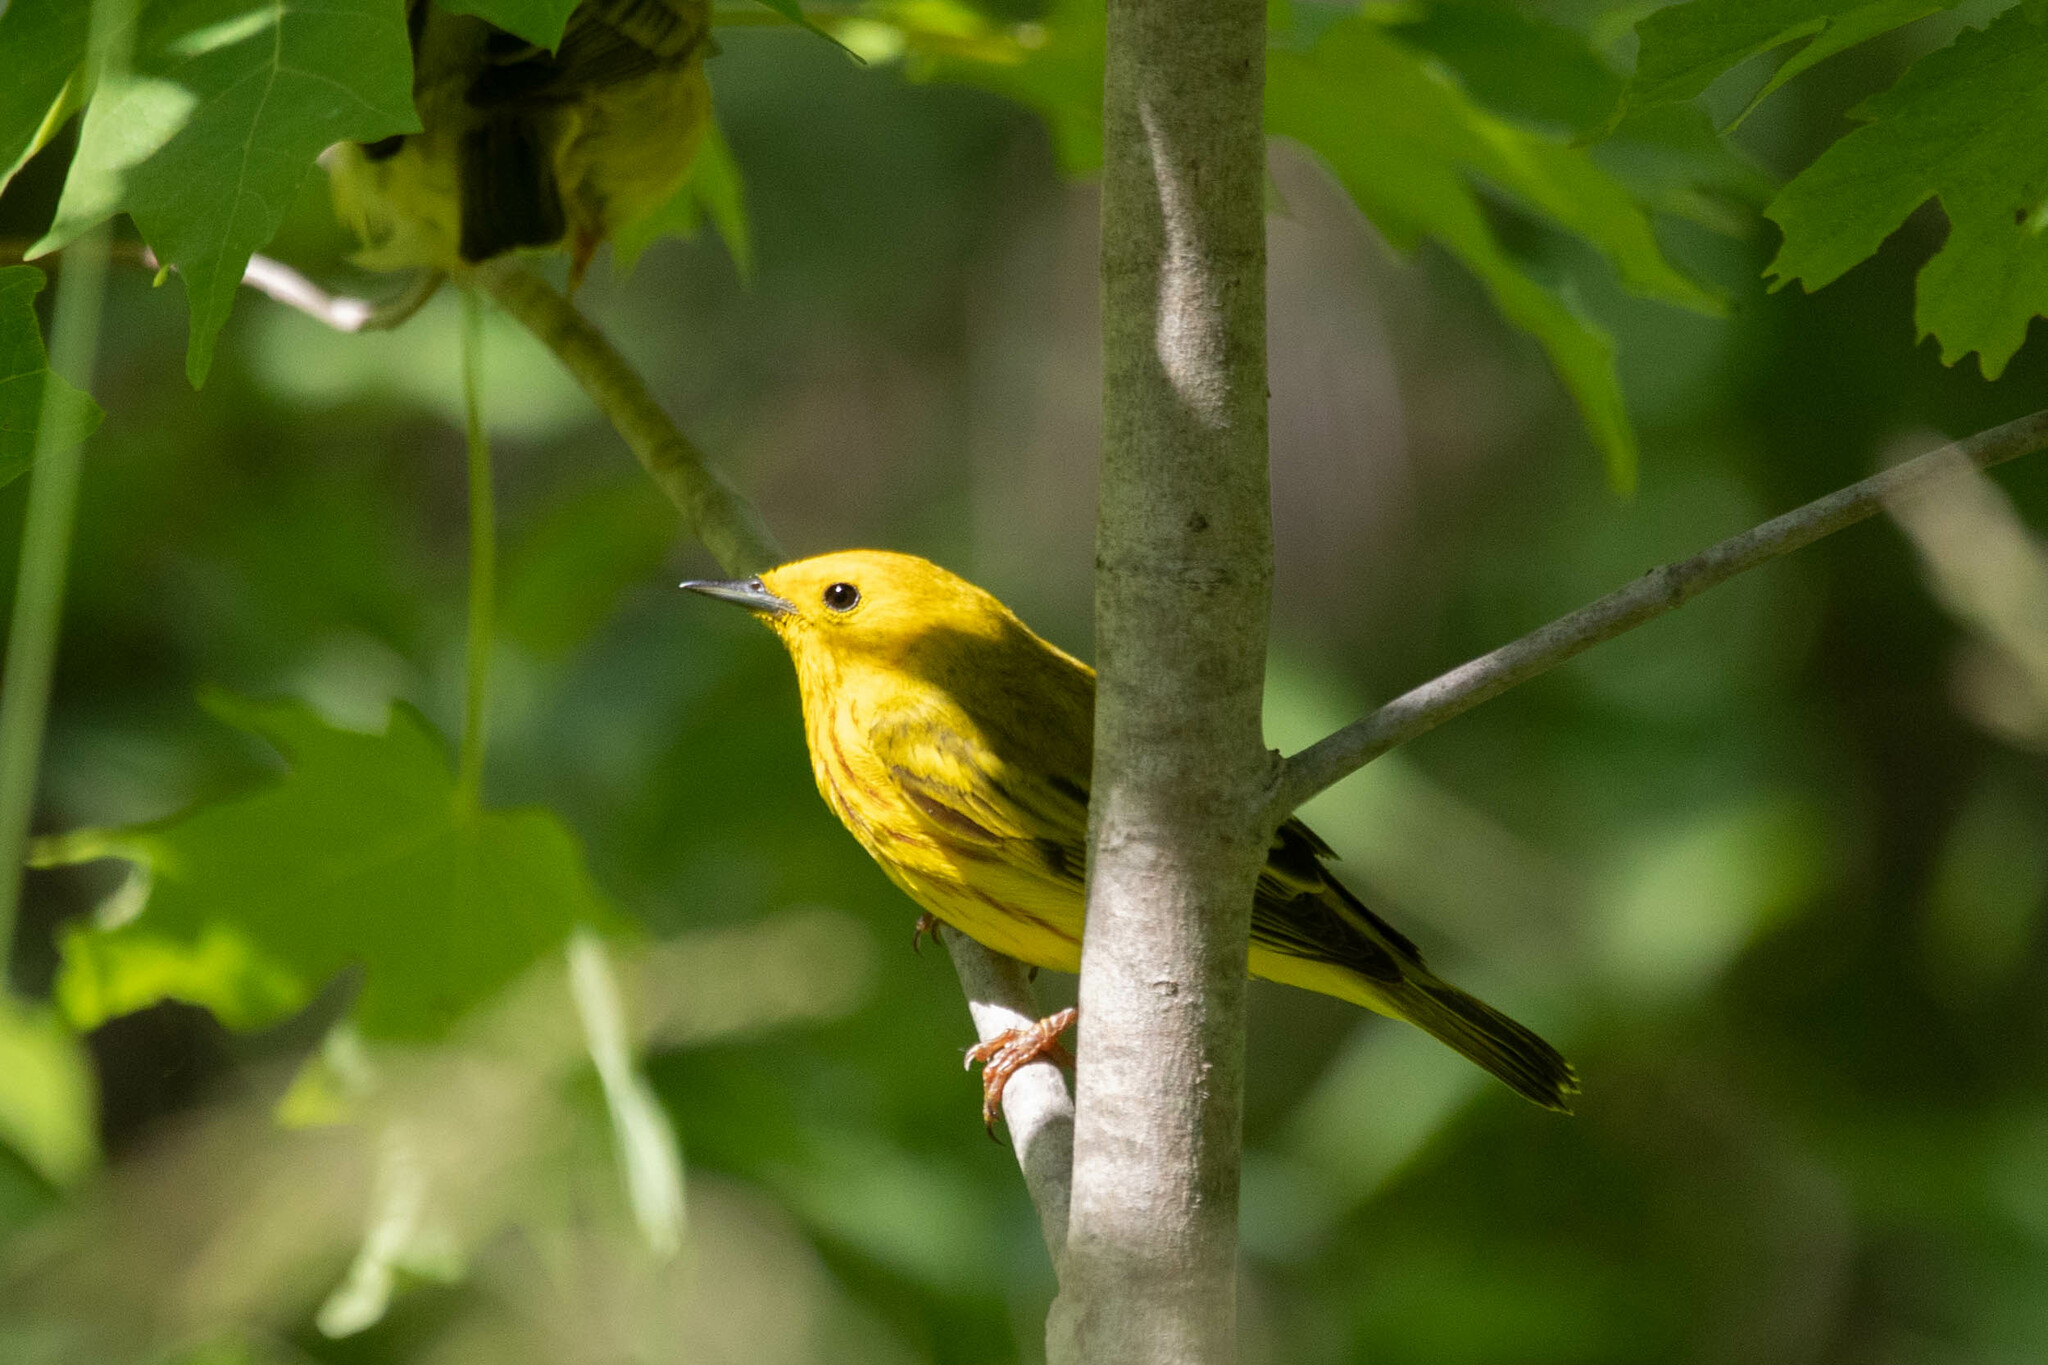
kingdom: Animalia
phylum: Chordata
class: Aves
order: Passeriformes
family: Parulidae
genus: Setophaga
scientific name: Setophaga petechia
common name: Yellow warbler
